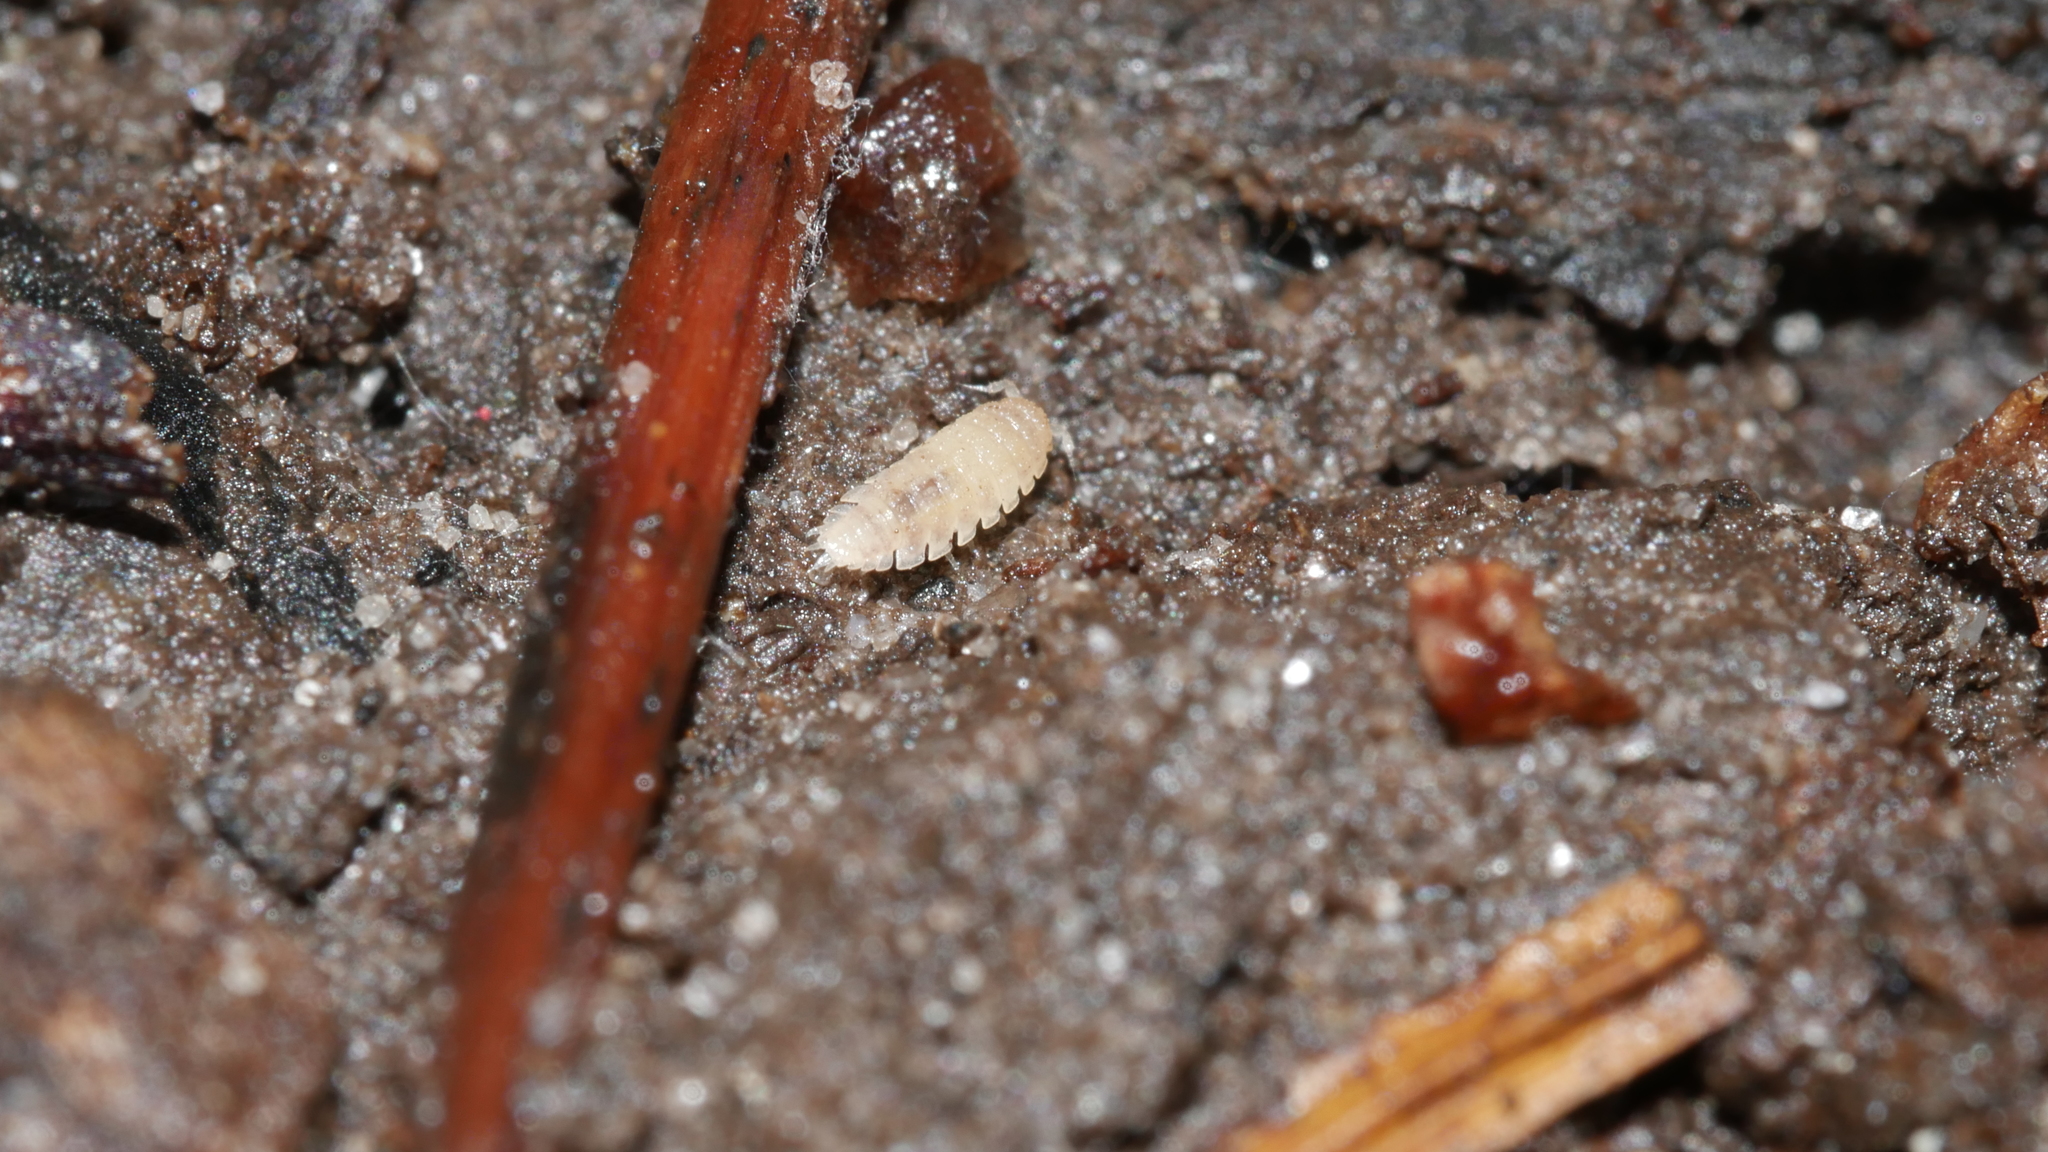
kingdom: Animalia
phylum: Arthropoda
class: Malacostraca
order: Isopoda
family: Trichoniscidae
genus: Haplophthalmus
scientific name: Haplophthalmus danicus
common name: Pillbug
